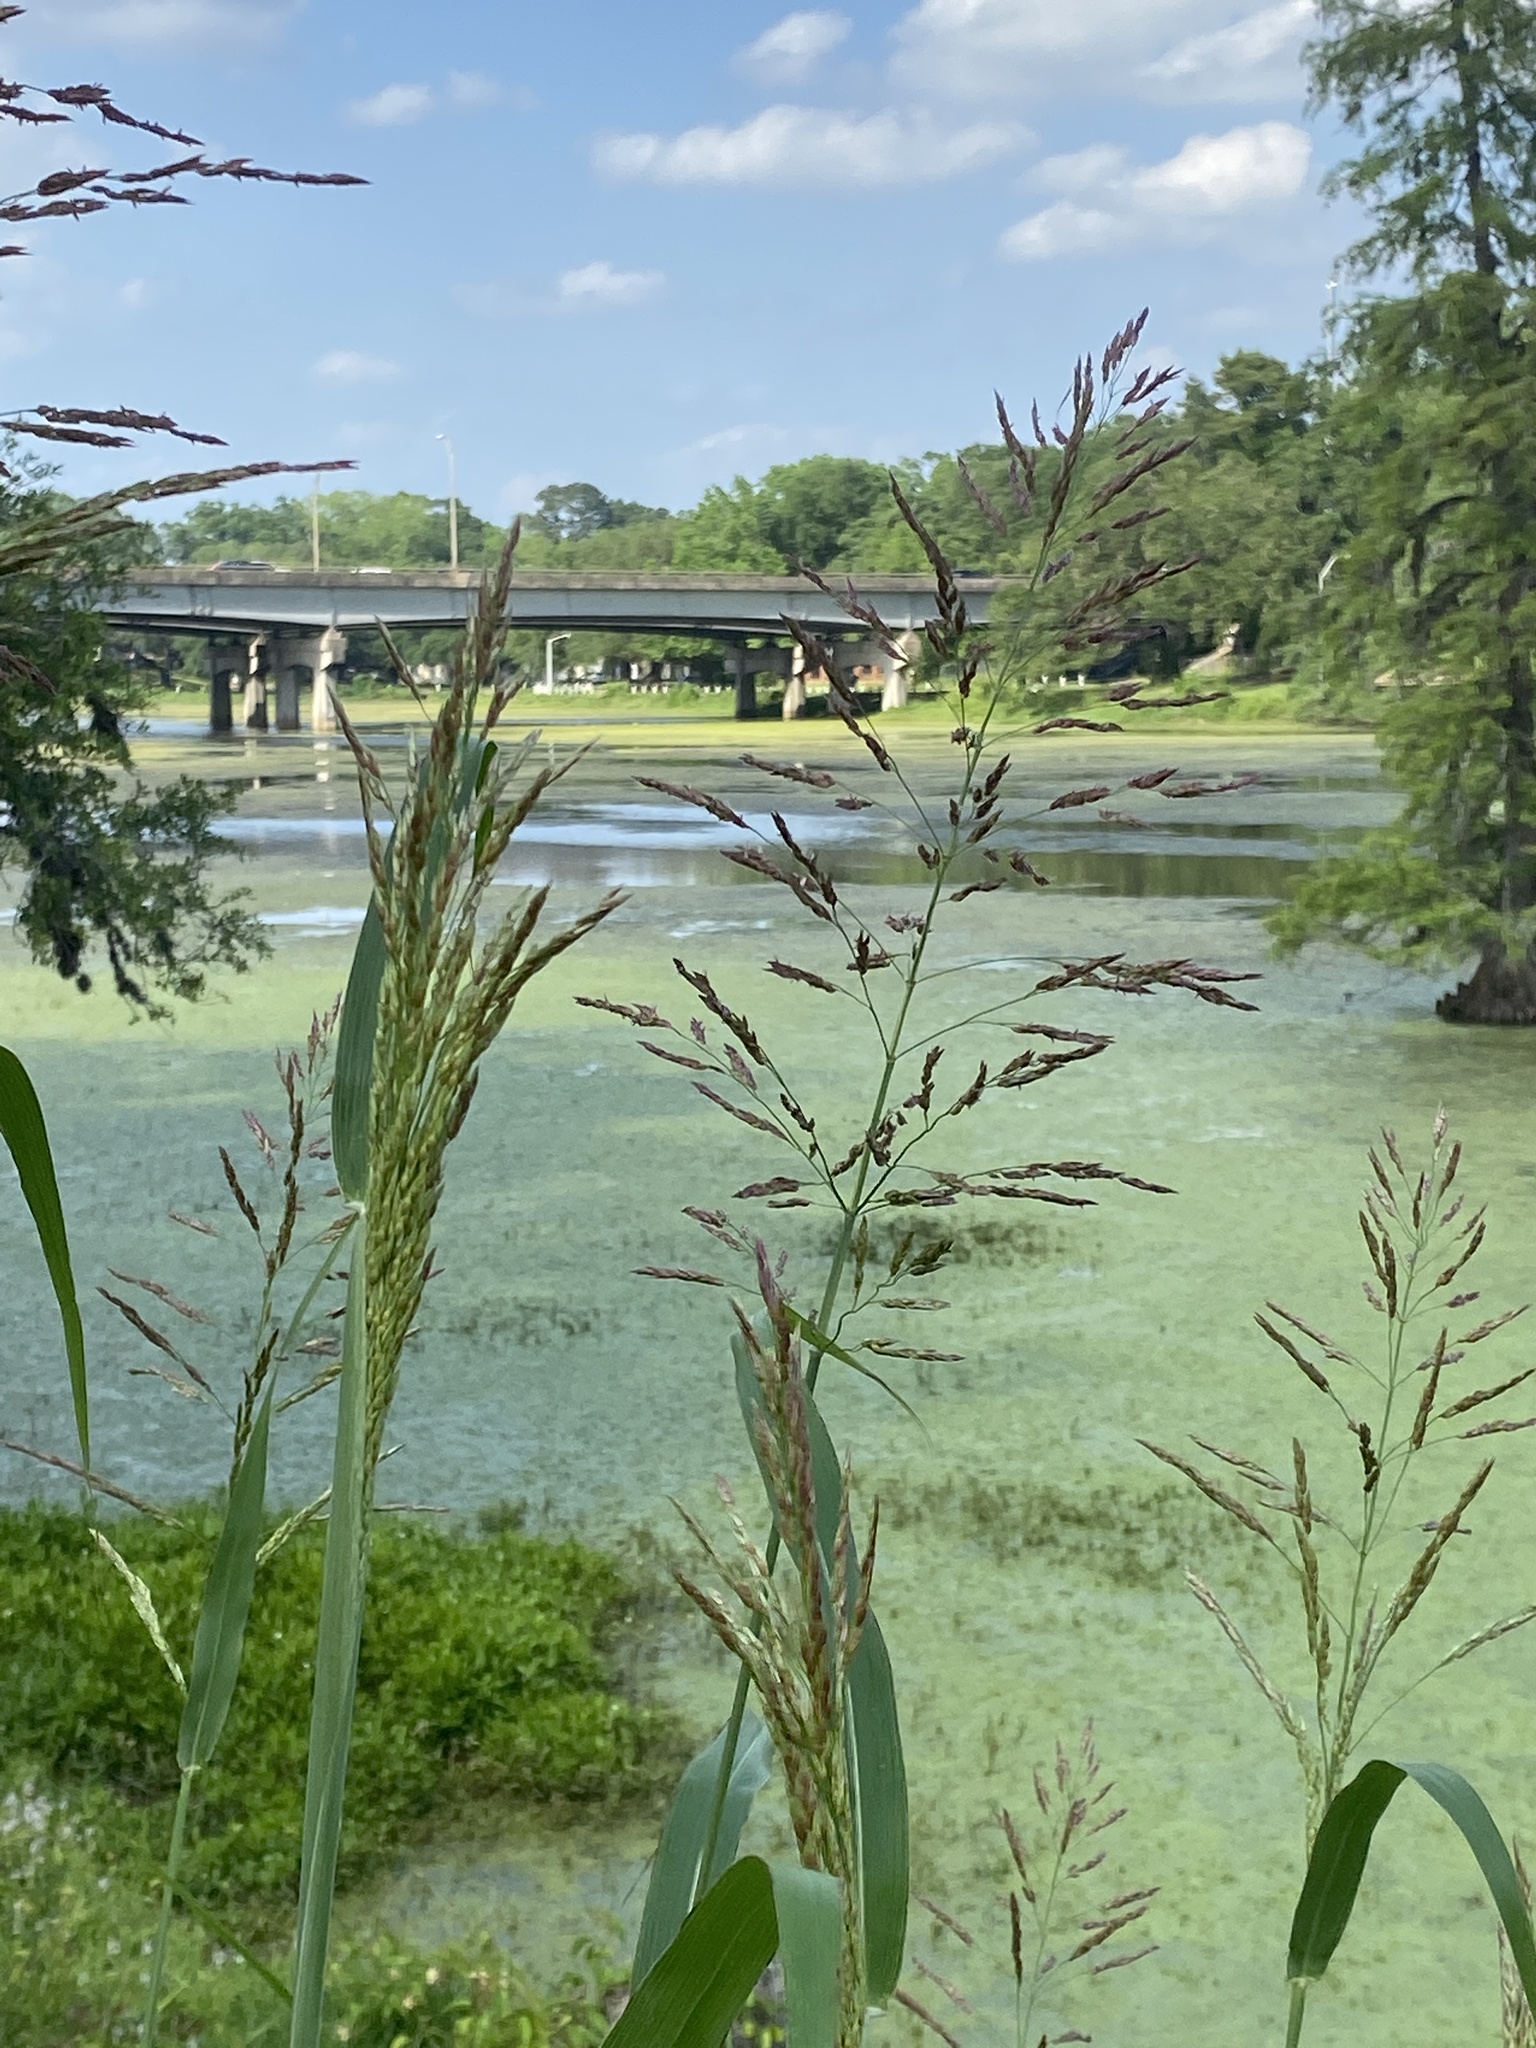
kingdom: Plantae
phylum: Tracheophyta
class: Liliopsida
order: Poales
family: Poaceae
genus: Sorghum
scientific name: Sorghum halepense
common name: Johnson-grass
